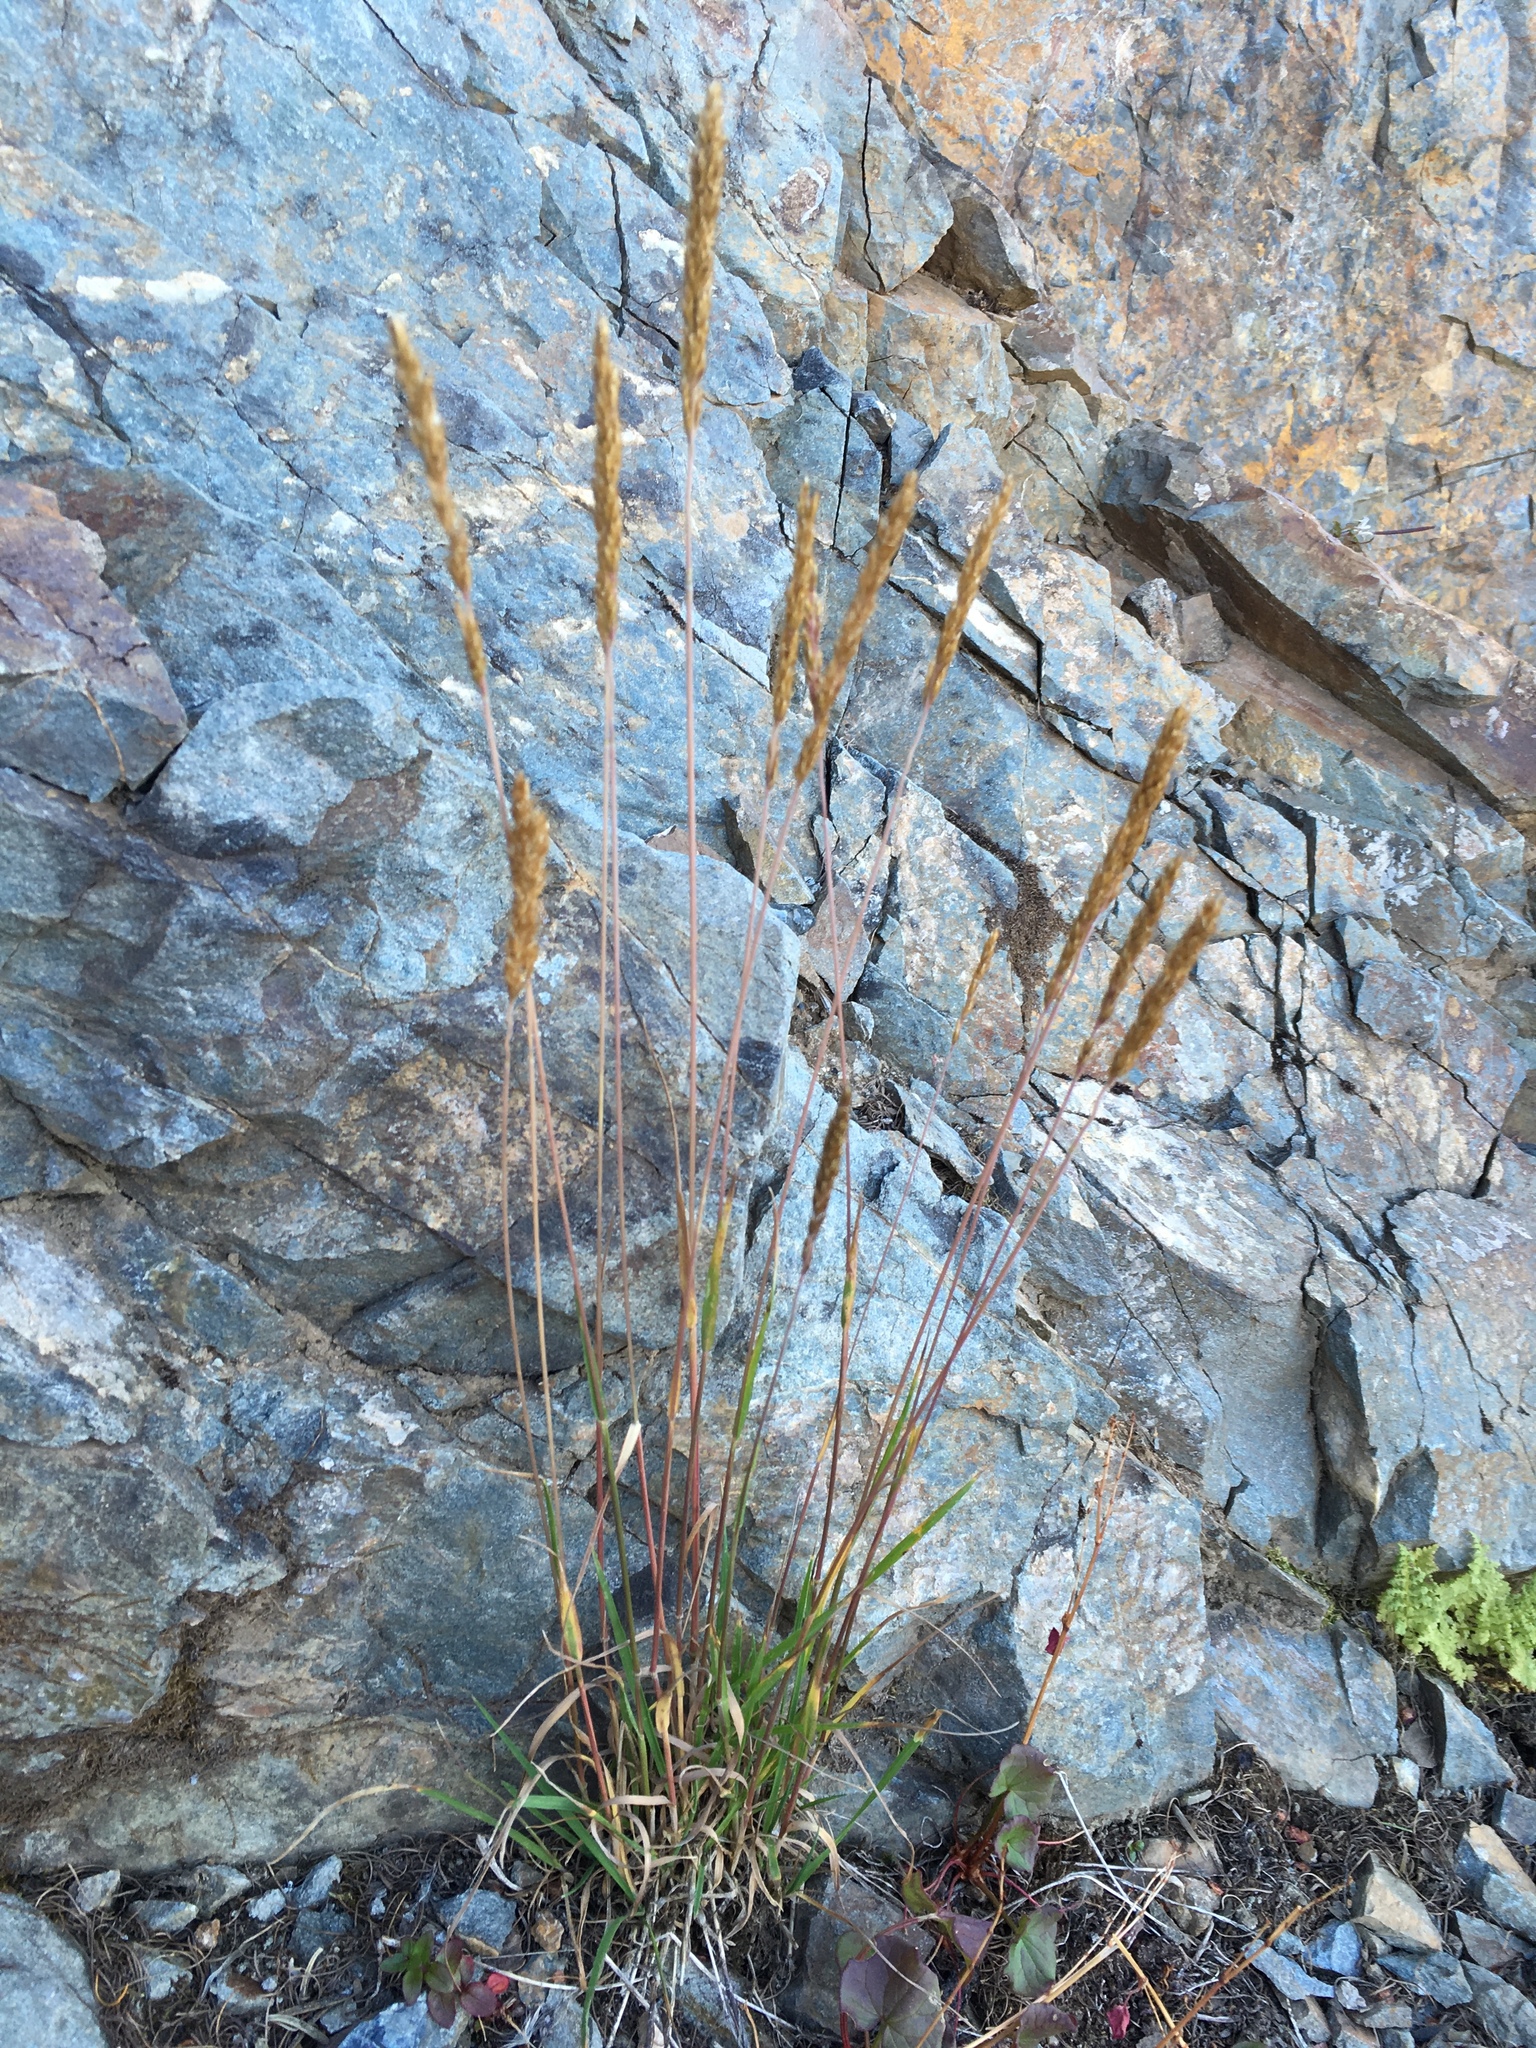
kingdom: Plantae
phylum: Tracheophyta
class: Liliopsida
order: Poales
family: Poaceae
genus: Koeleria
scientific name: Koeleria spicata
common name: Mountain trisetum
